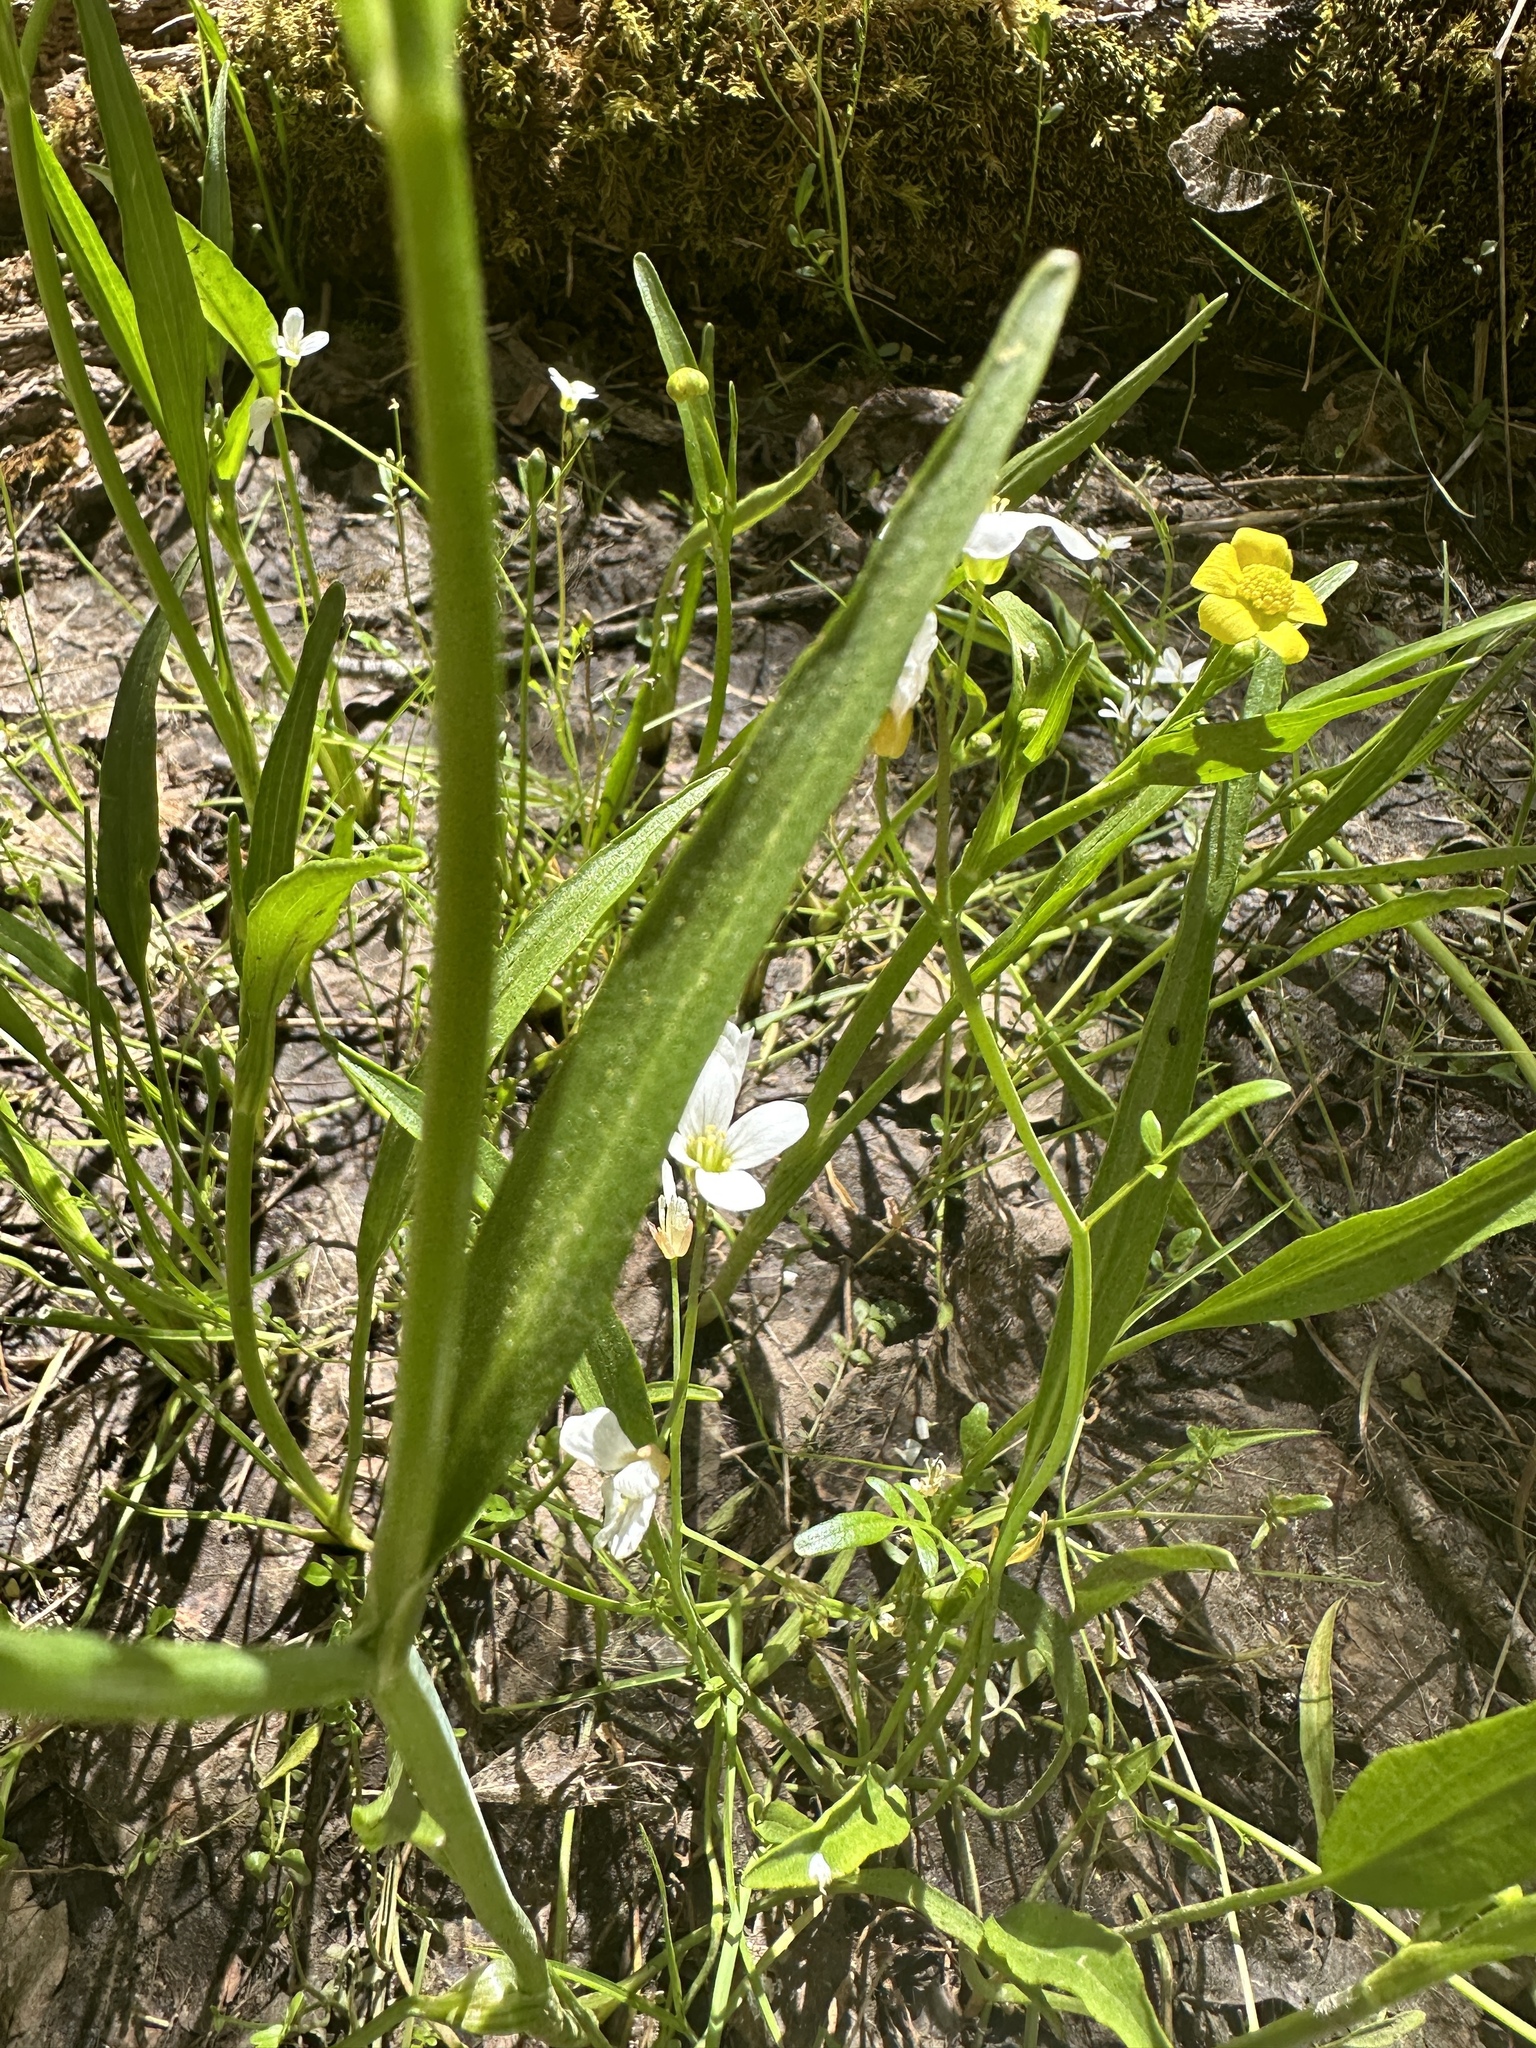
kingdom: Plantae
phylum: Tracheophyta
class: Magnoliopsida
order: Ranunculales
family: Ranunculaceae
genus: Ranunculus
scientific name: Ranunculus alismifolius
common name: Plantain-leaved buttercup
